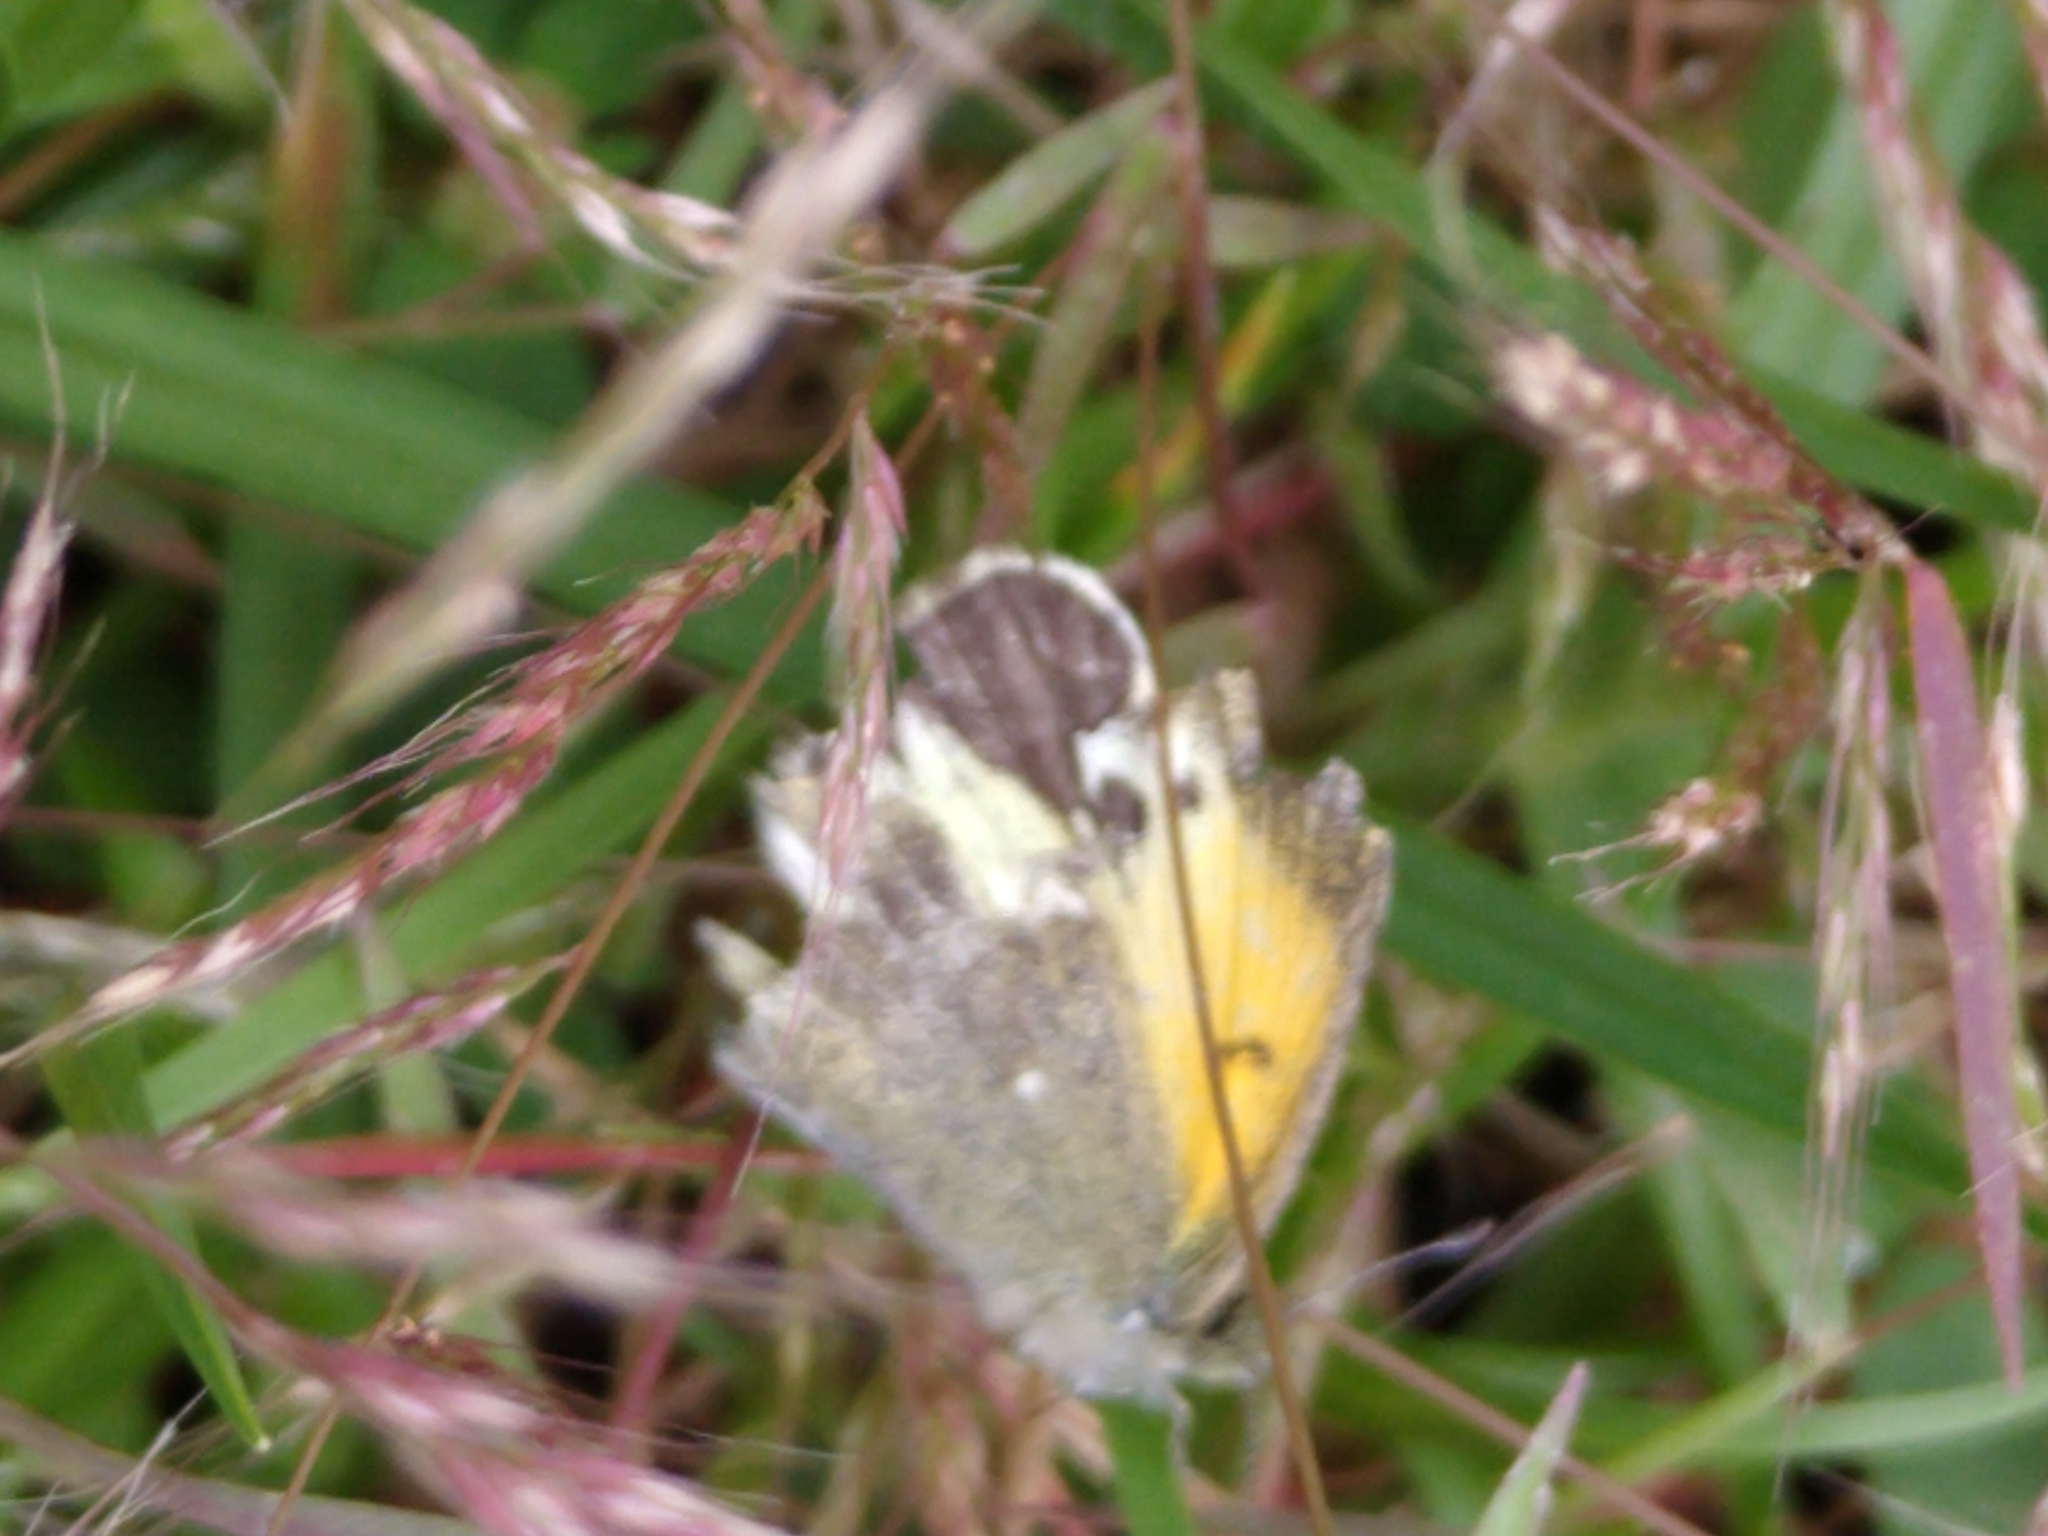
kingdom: Animalia
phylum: Arthropoda
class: Insecta
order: Lepidoptera
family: Pieridae
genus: Nathalis
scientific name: Nathalis iole
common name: Dainty sulphur
